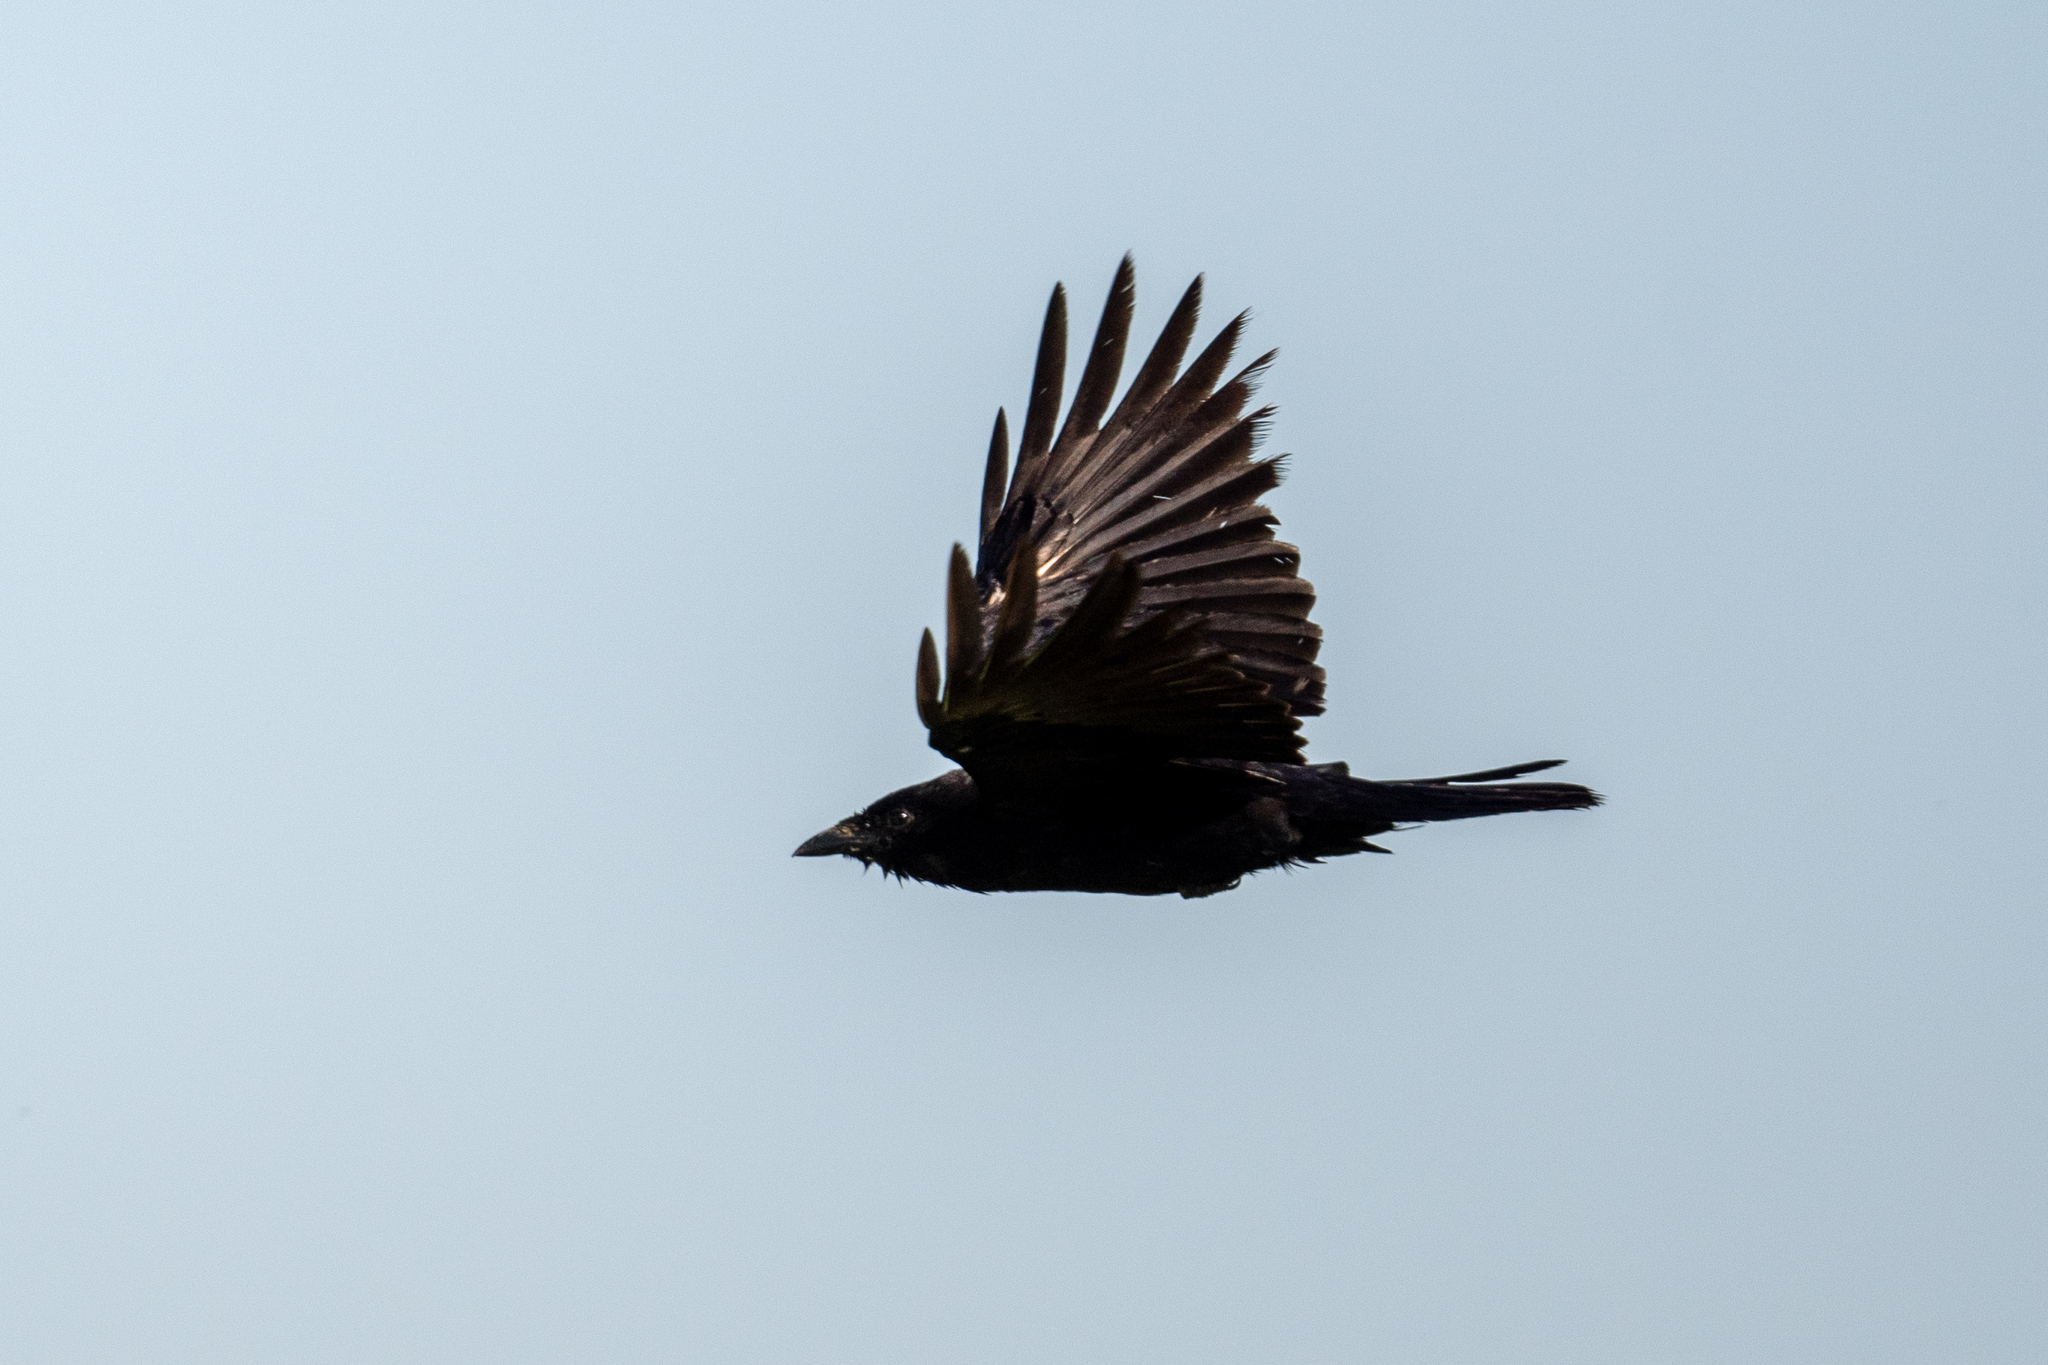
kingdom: Animalia
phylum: Chordata
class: Aves
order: Passeriformes
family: Corvidae
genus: Corvus
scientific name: Corvus brachyrhynchos
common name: American crow
